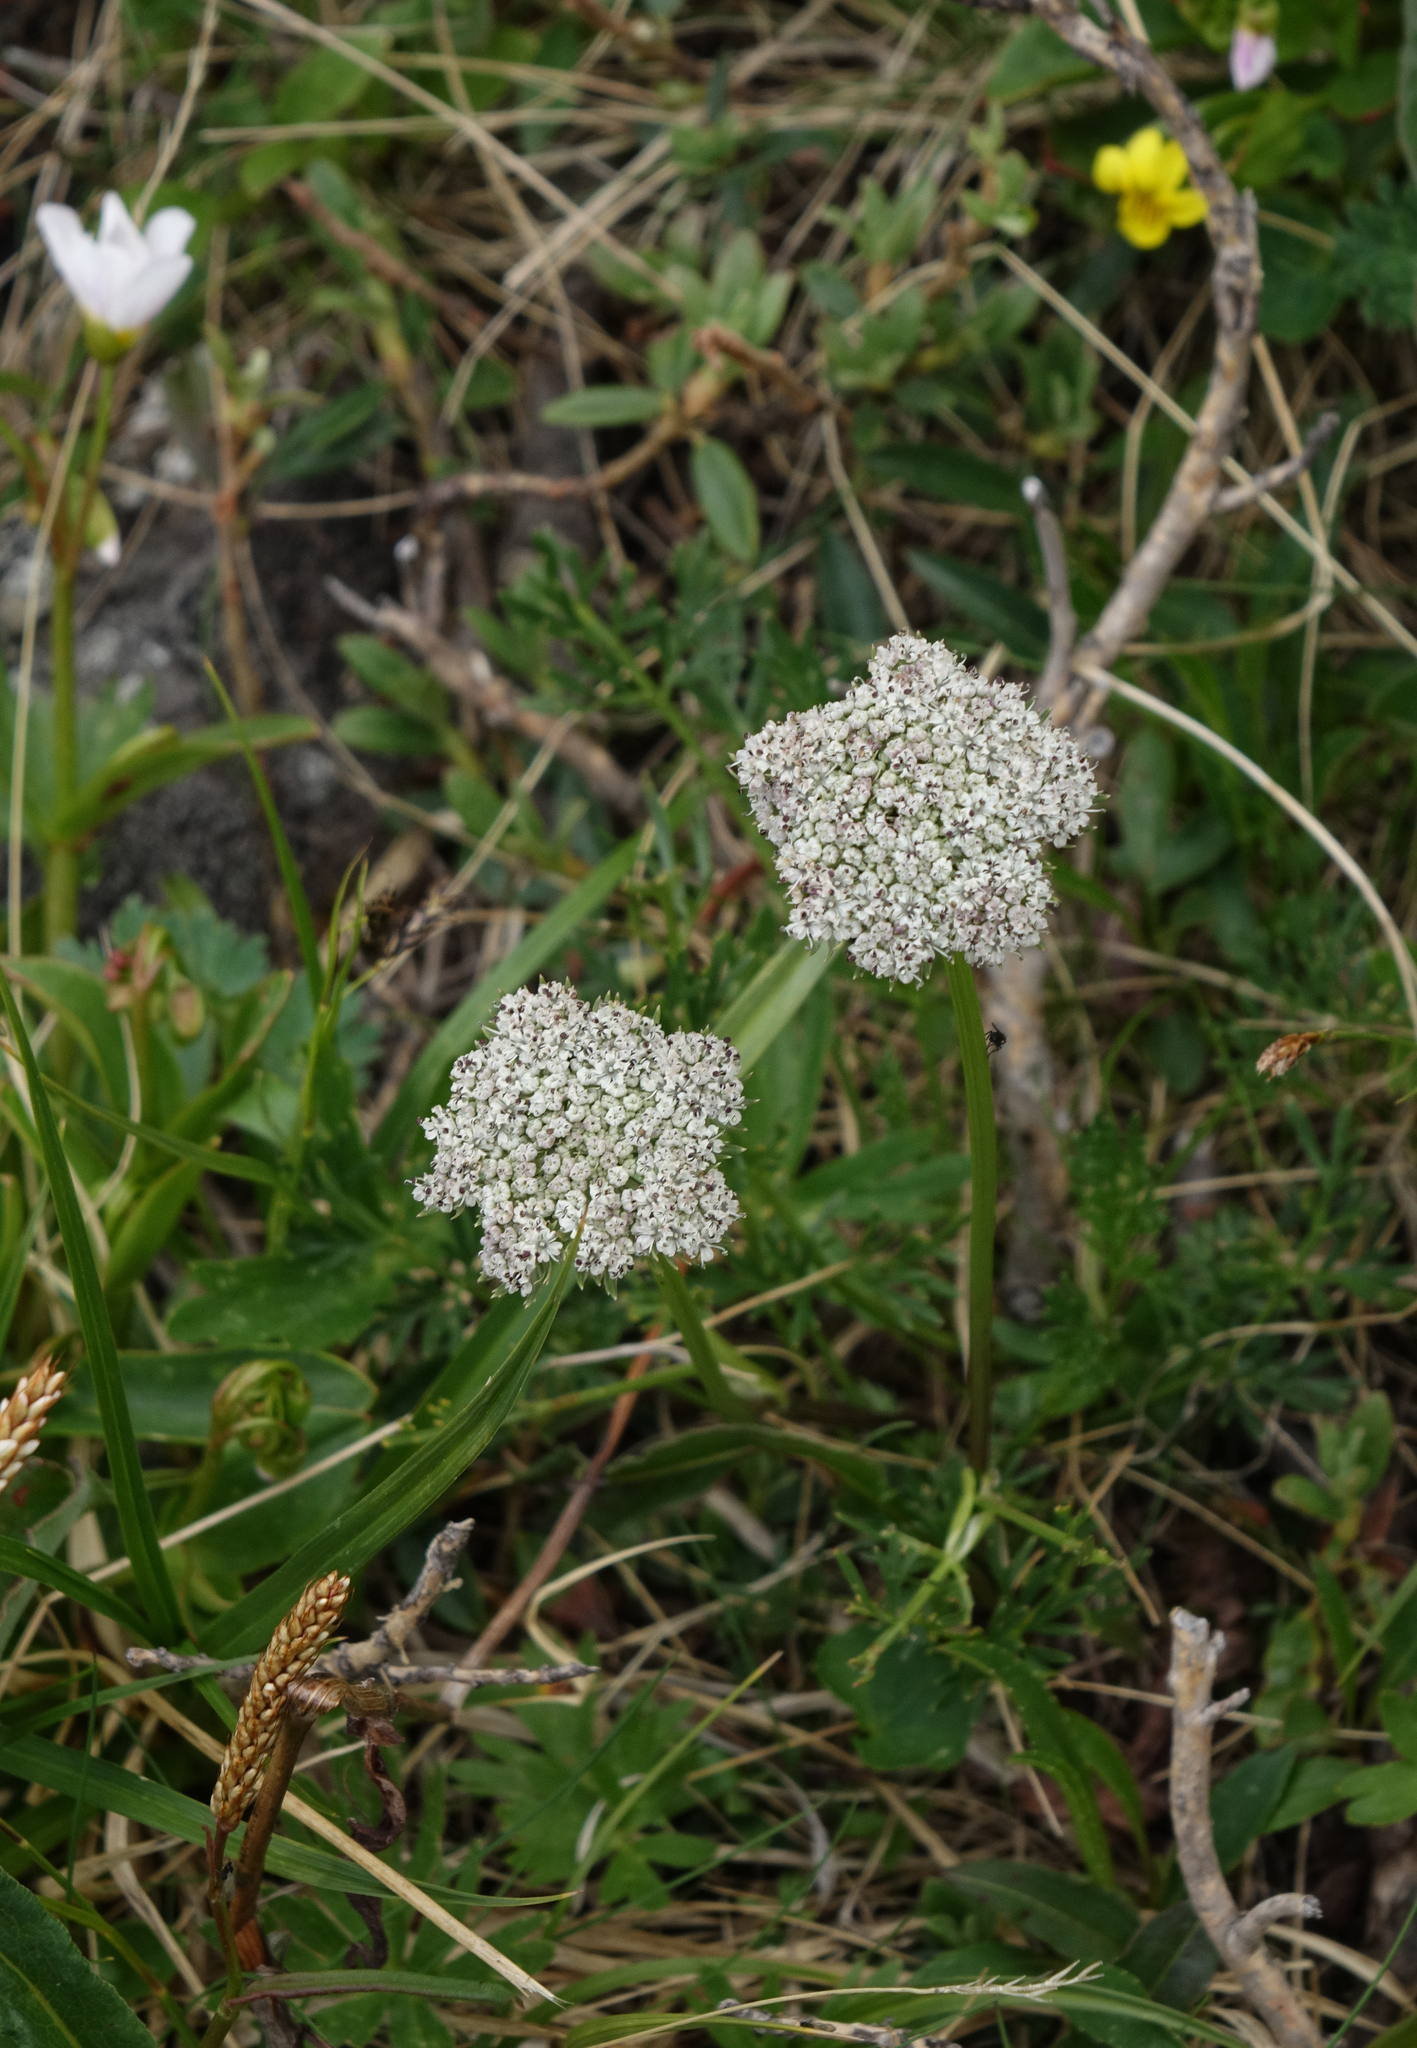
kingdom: Plantae
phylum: Tracheophyta
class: Magnoliopsida
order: Apiales
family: Apiaceae
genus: Pachypleurum
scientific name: Pachypleurum mutellinoides
